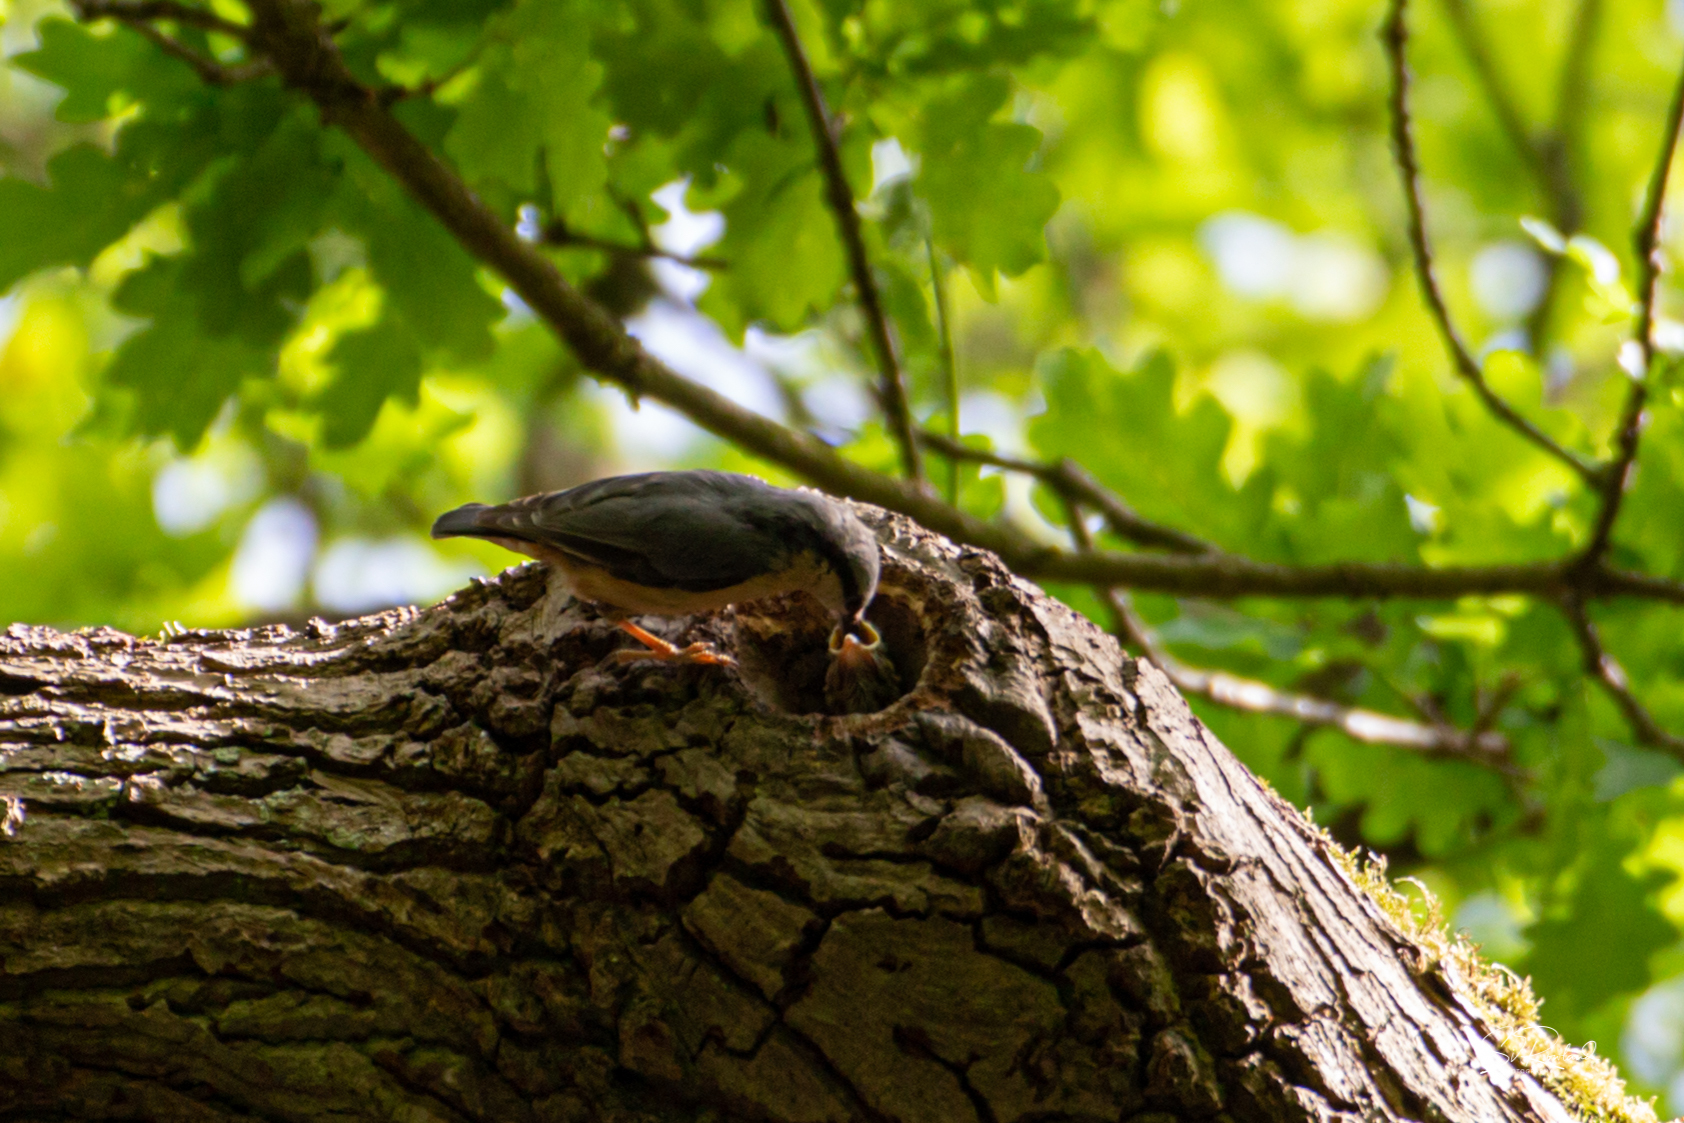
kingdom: Animalia
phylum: Chordata
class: Aves
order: Passeriformes
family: Sittidae
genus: Sitta
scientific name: Sitta europaea
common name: Eurasian nuthatch
